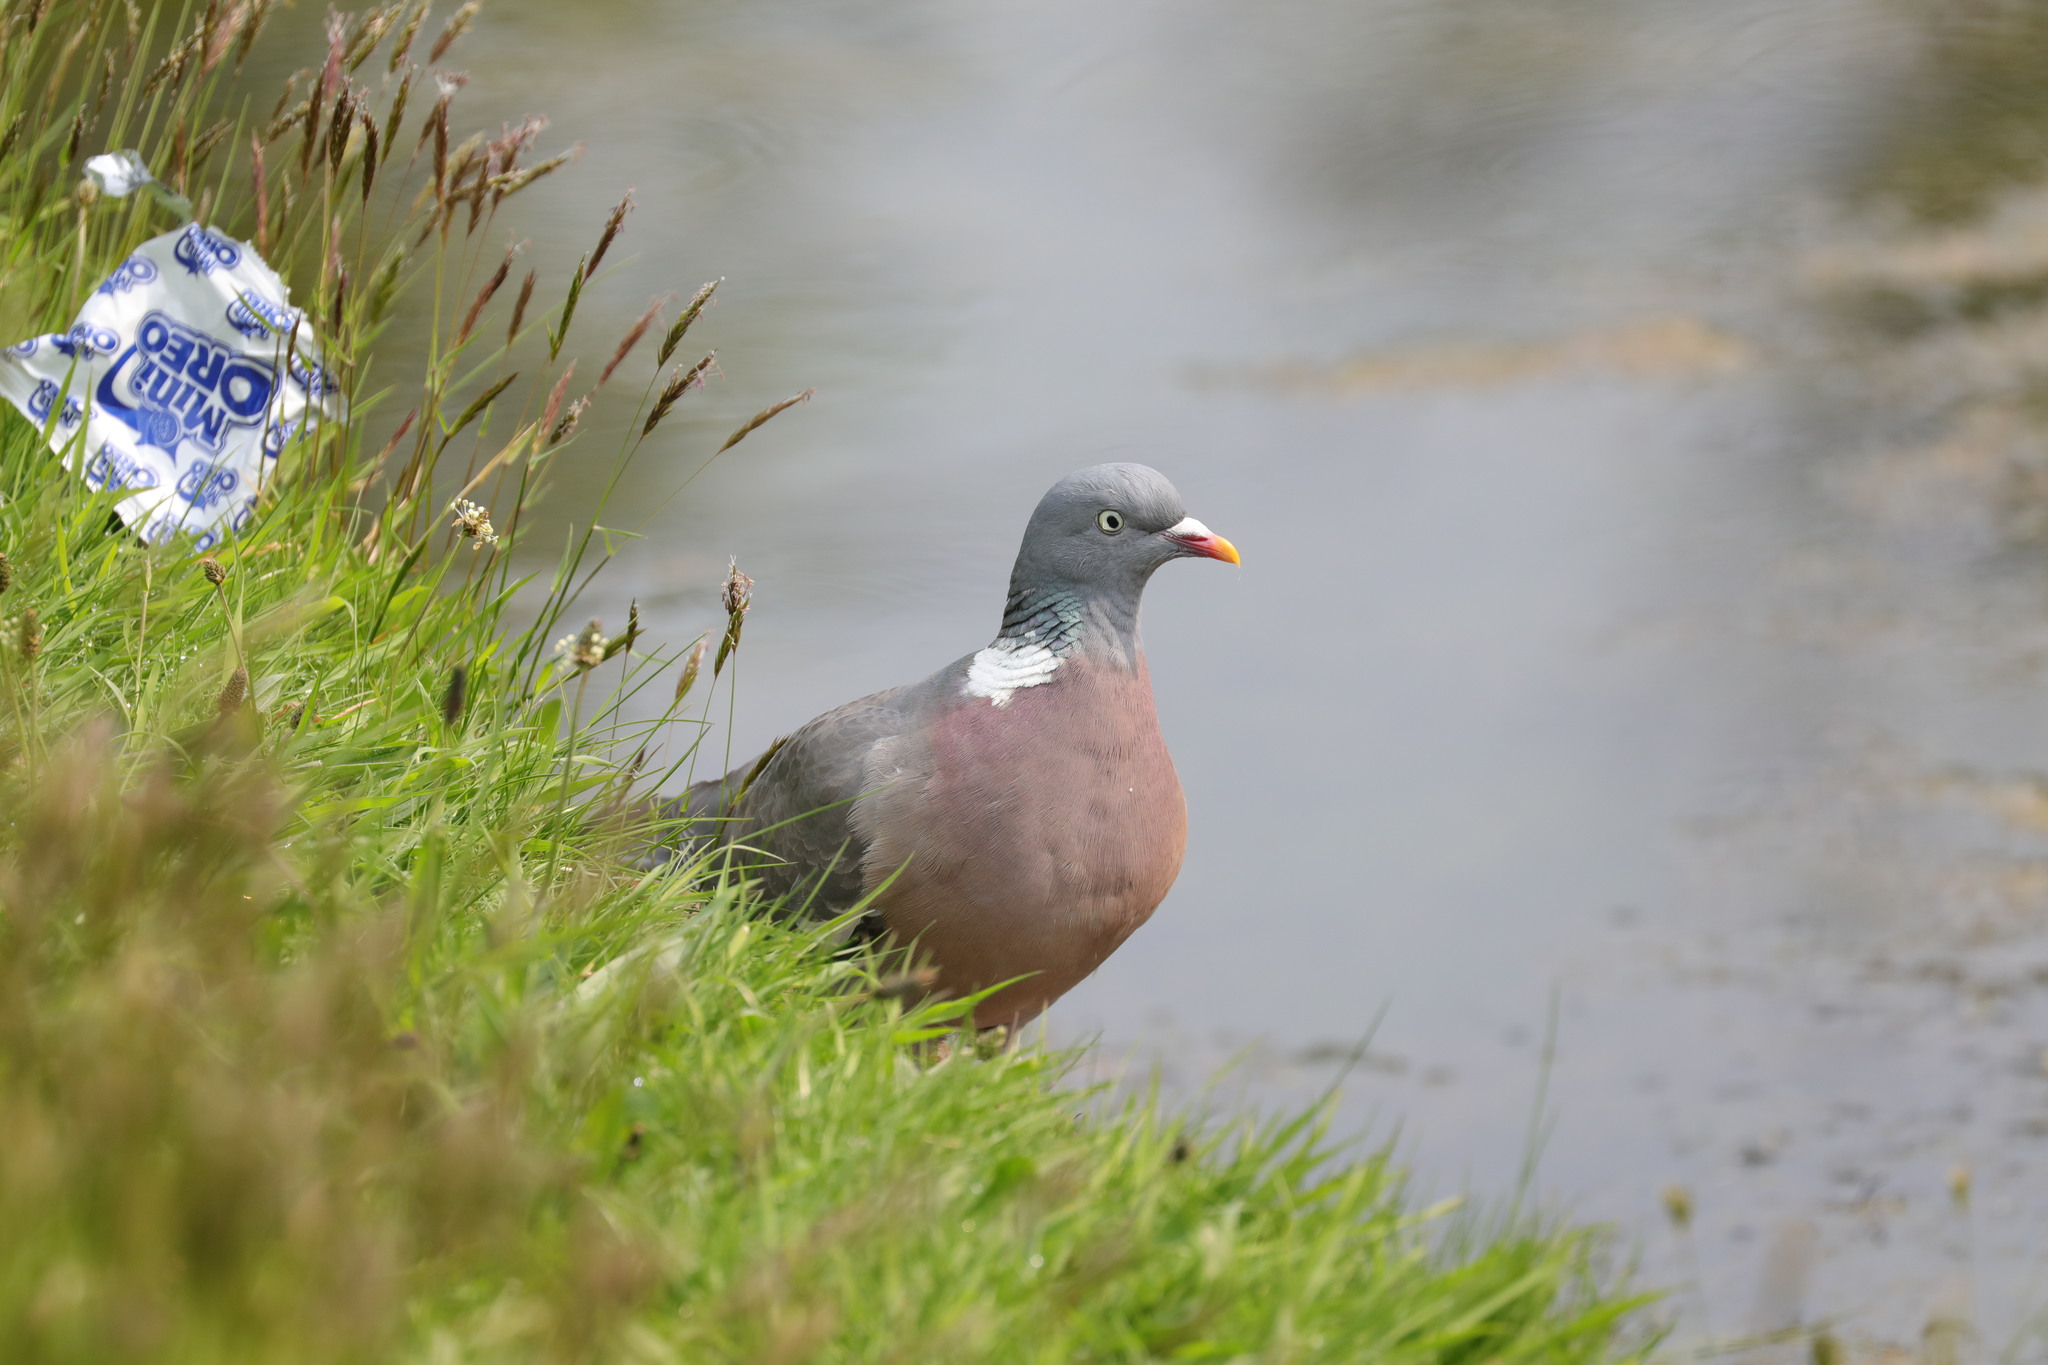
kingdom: Animalia
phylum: Chordata
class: Aves
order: Columbiformes
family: Columbidae
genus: Columba
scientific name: Columba palumbus
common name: Common wood pigeon
